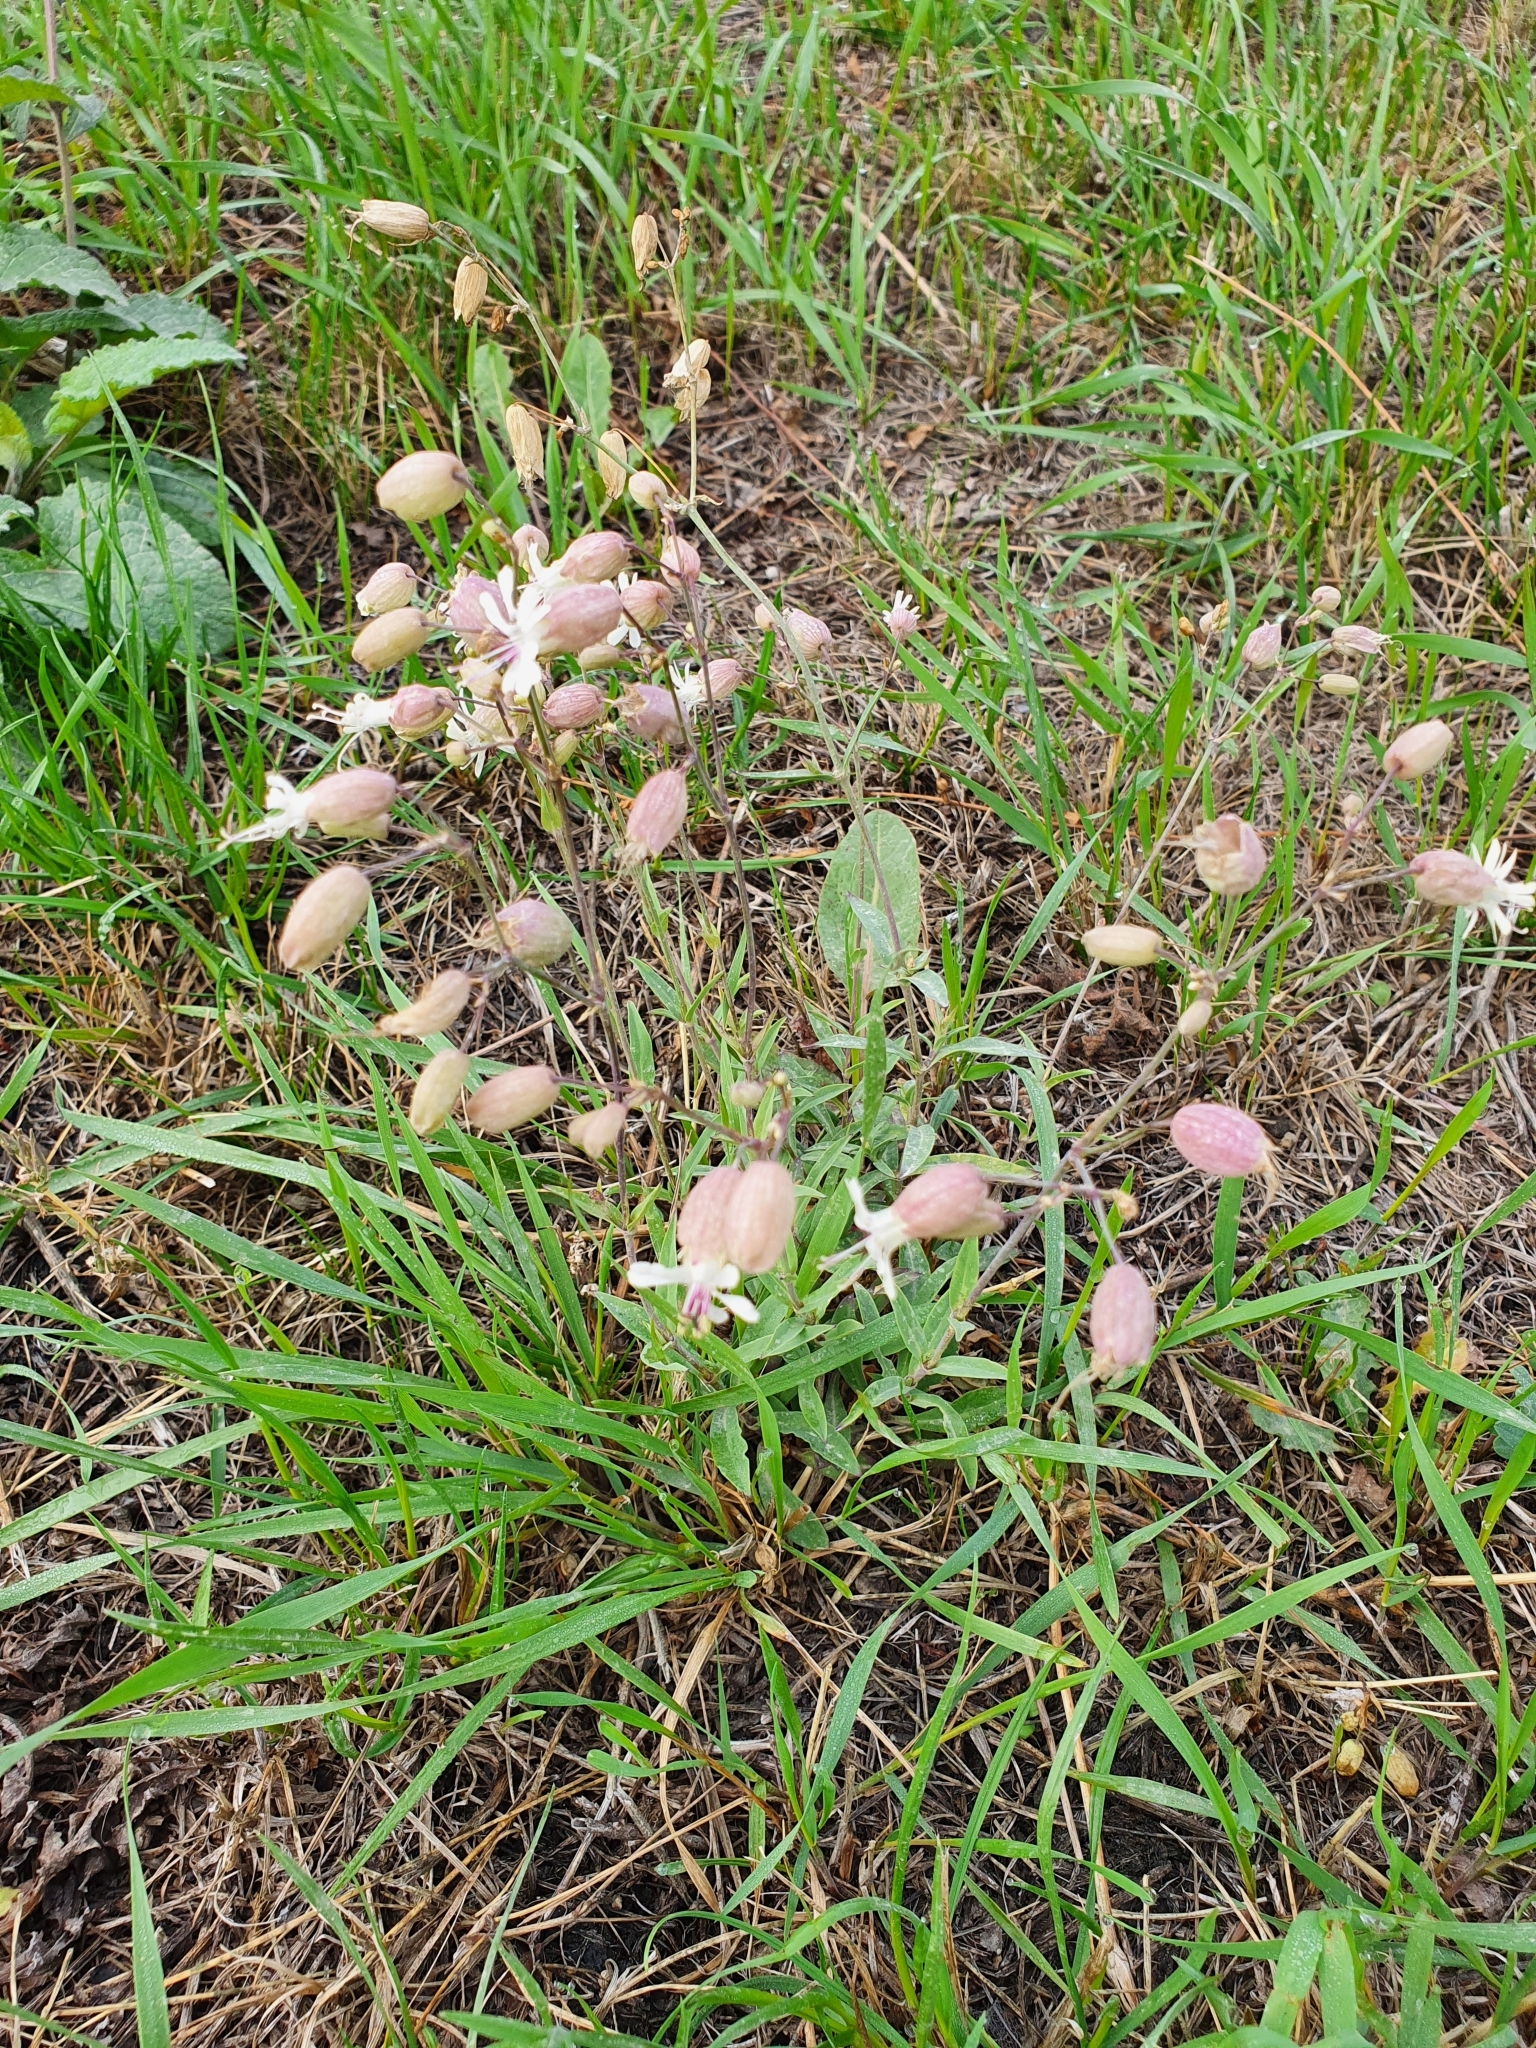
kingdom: Plantae
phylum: Tracheophyta
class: Magnoliopsida
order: Caryophyllales
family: Caryophyllaceae
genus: Silene
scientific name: Silene vulgaris
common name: Bladder campion
